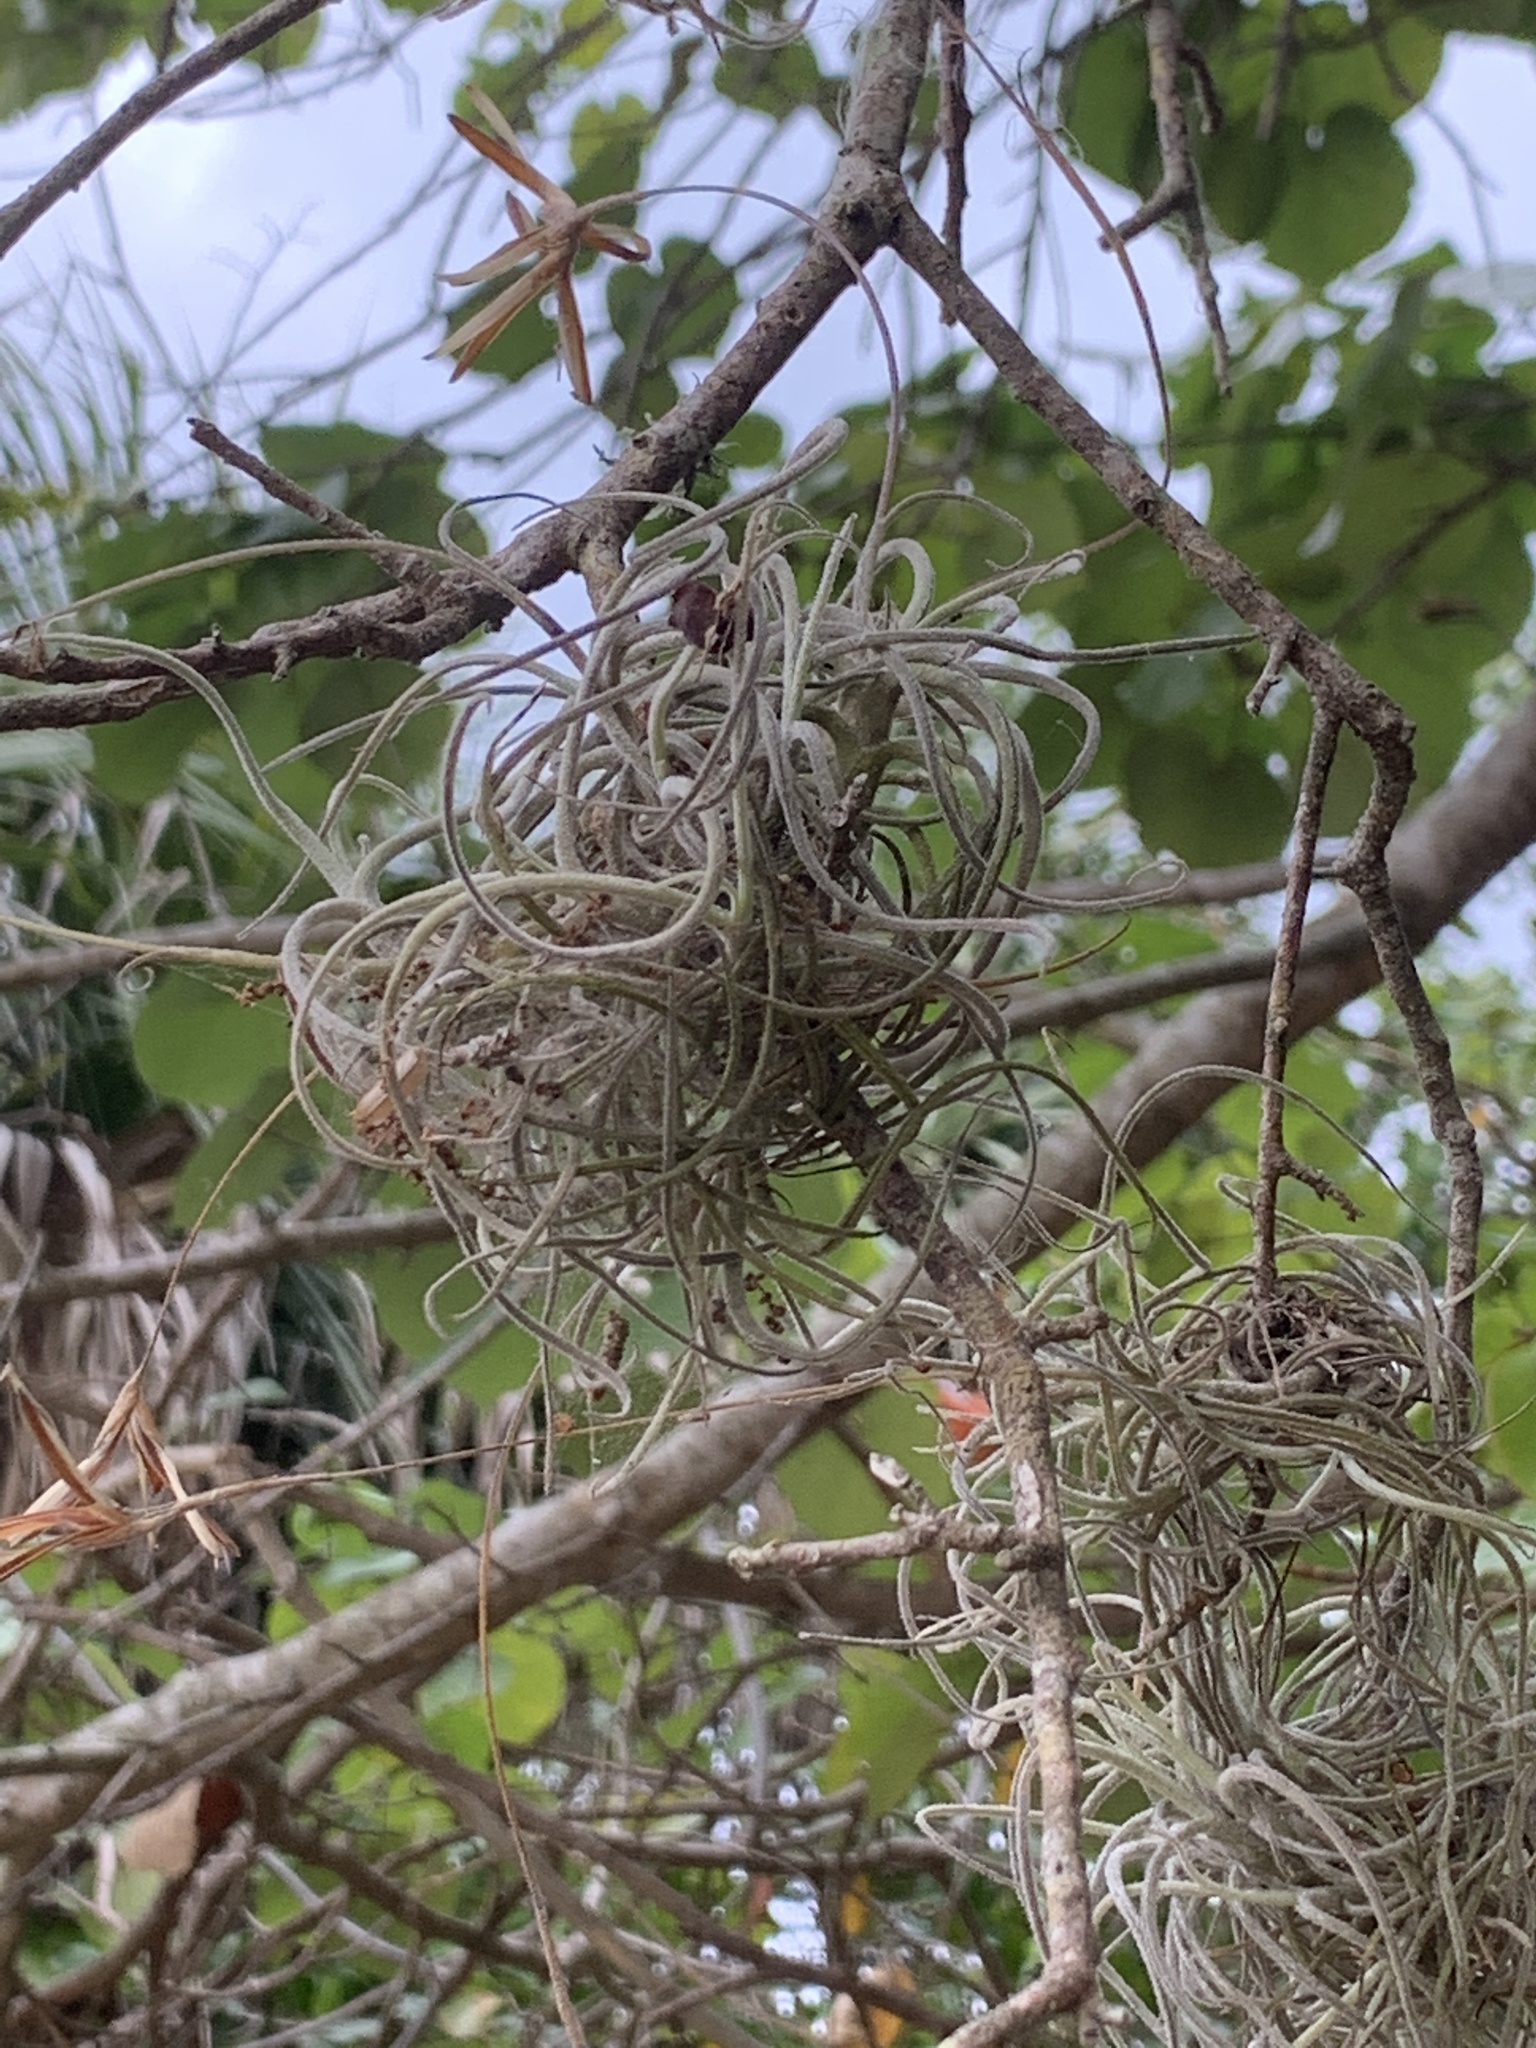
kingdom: Plantae
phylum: Tracheophyta
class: Liliopsida
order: Poales
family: Bromeliaceae
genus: Tillandsia
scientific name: Tillandsia recurvata
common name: Small ballmoss
